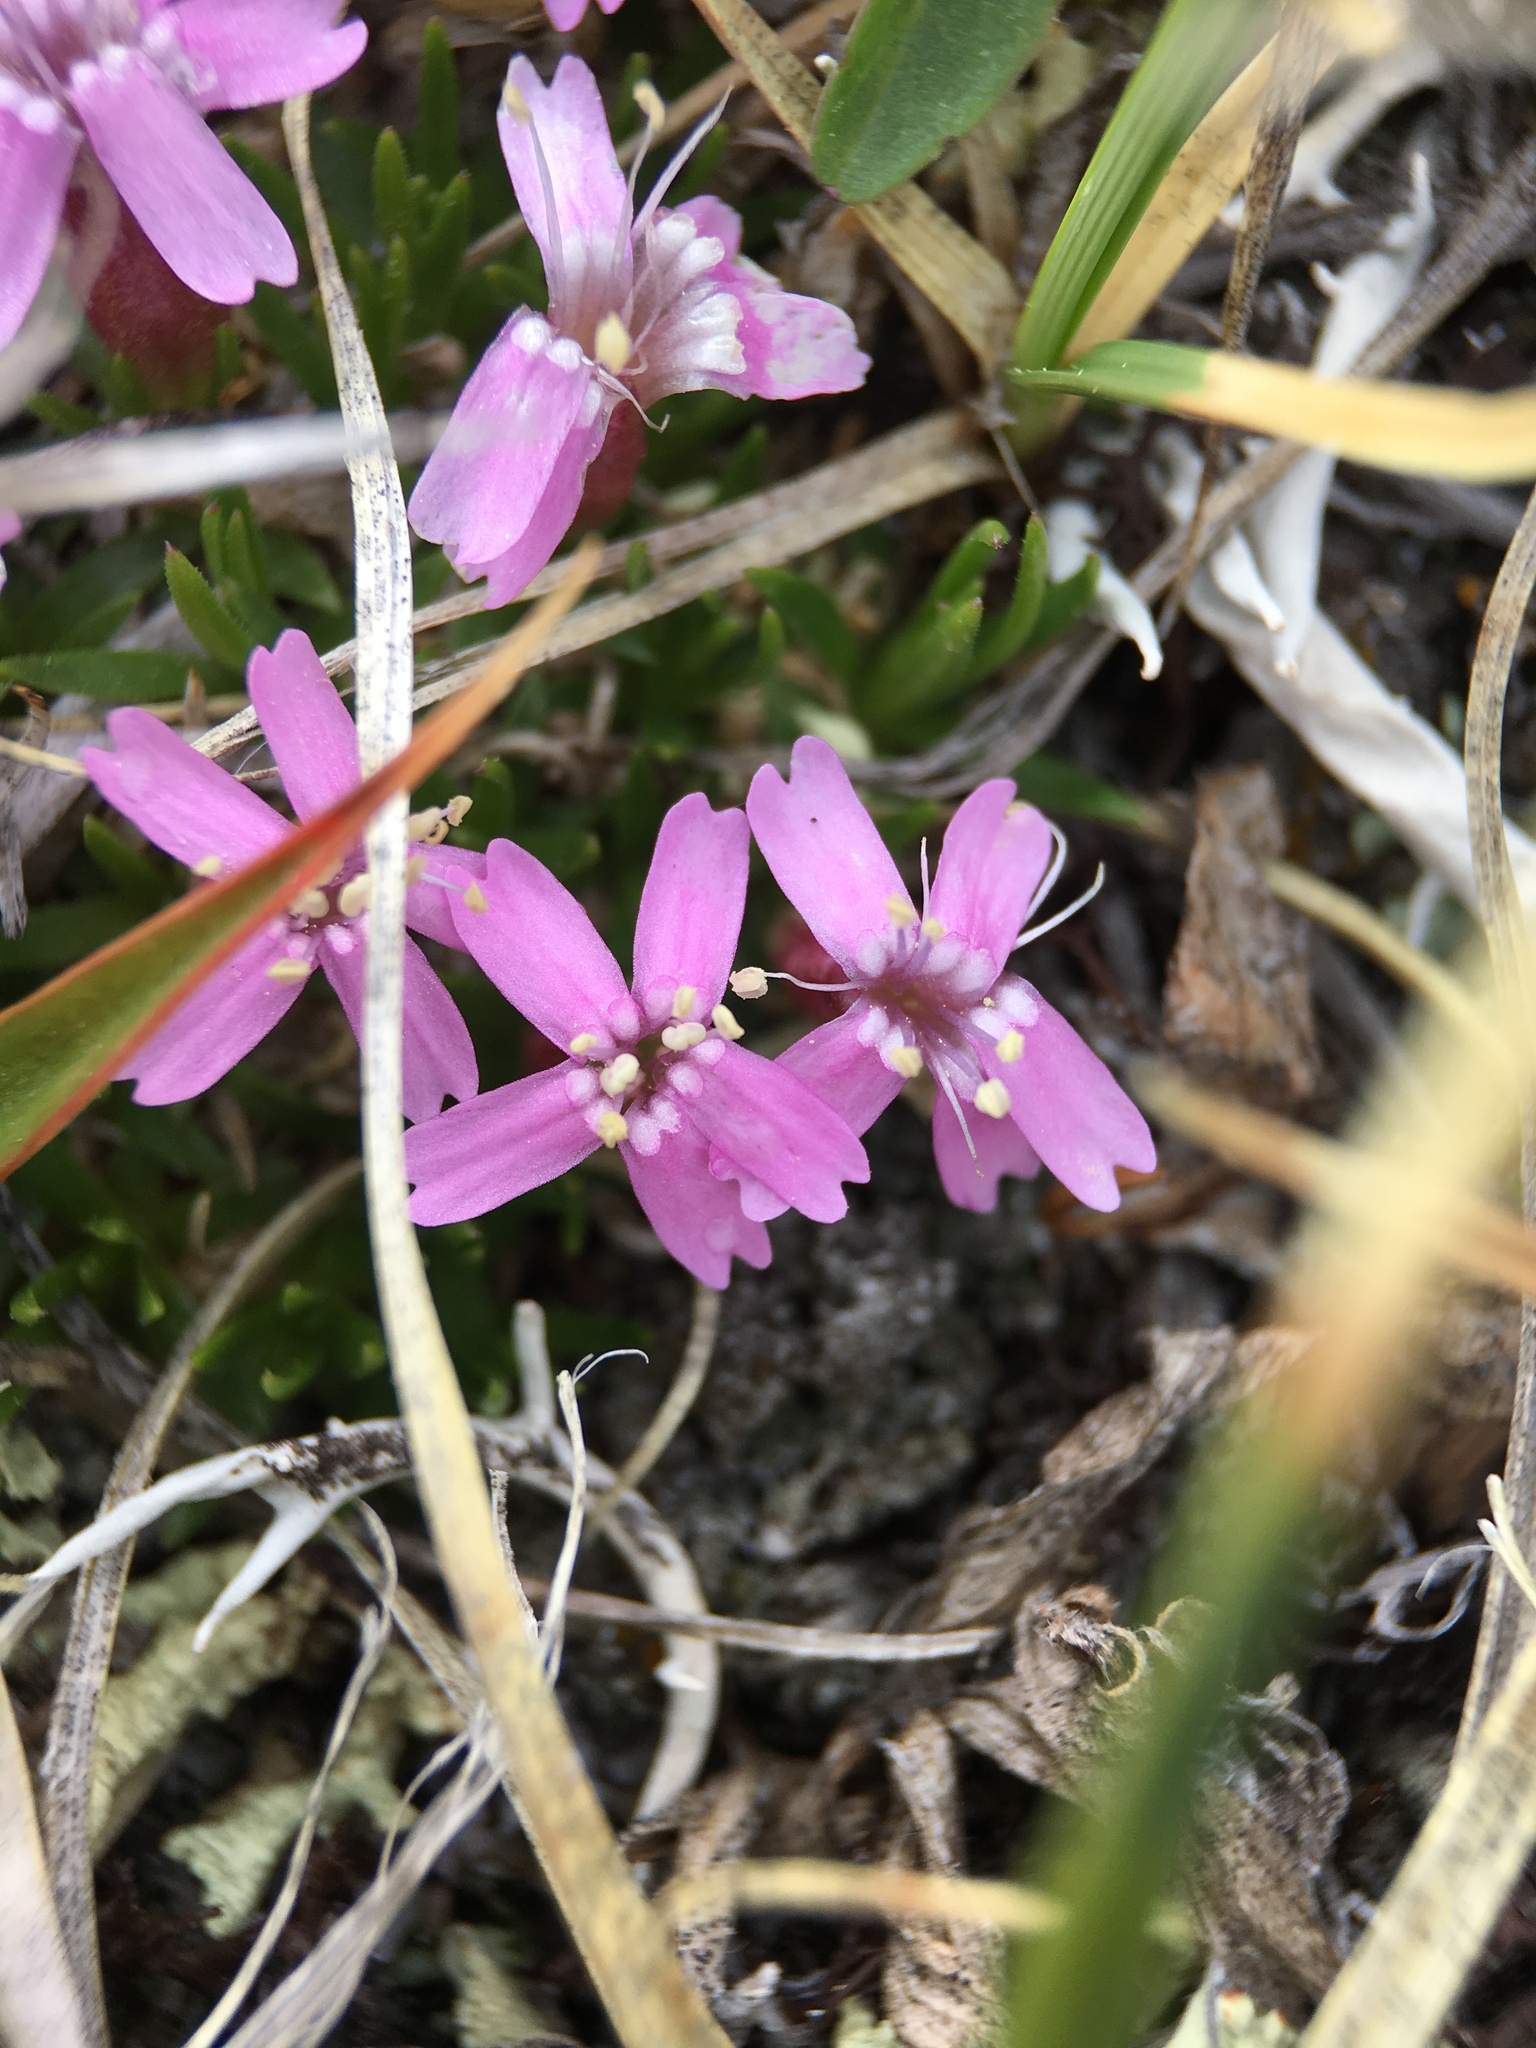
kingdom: Plantae
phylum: Tracheophyta
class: Magnoliopsida
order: Caryophyllales
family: Caryophyllaceae
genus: Silene
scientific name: Silene acaulis
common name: Moss campion
